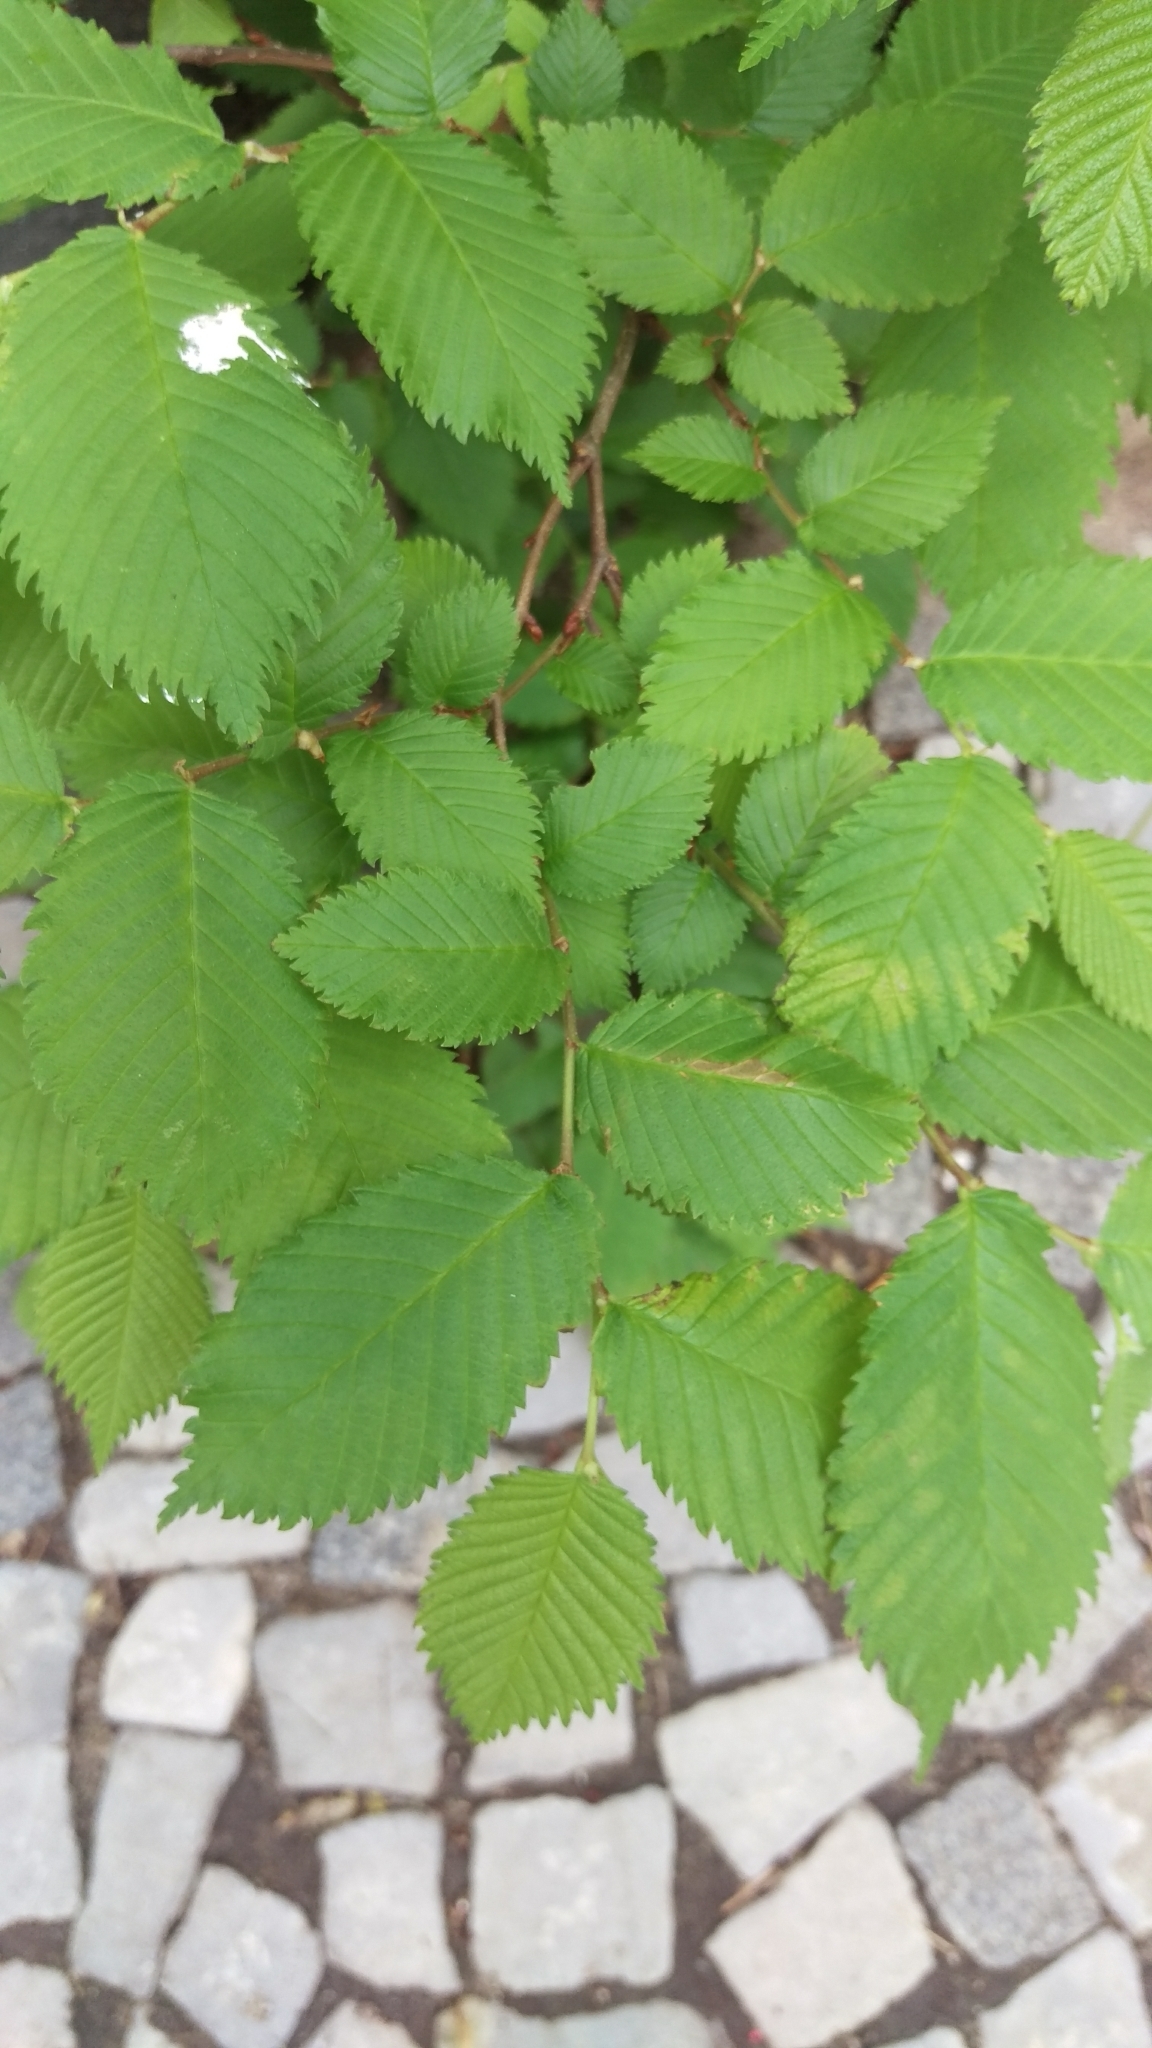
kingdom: Plantae
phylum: Tracheophyta
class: Magnoliopsida
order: Rosales
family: Ulmaceae
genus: Ulmus
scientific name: Ulmus minor
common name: Small-leaved elm
